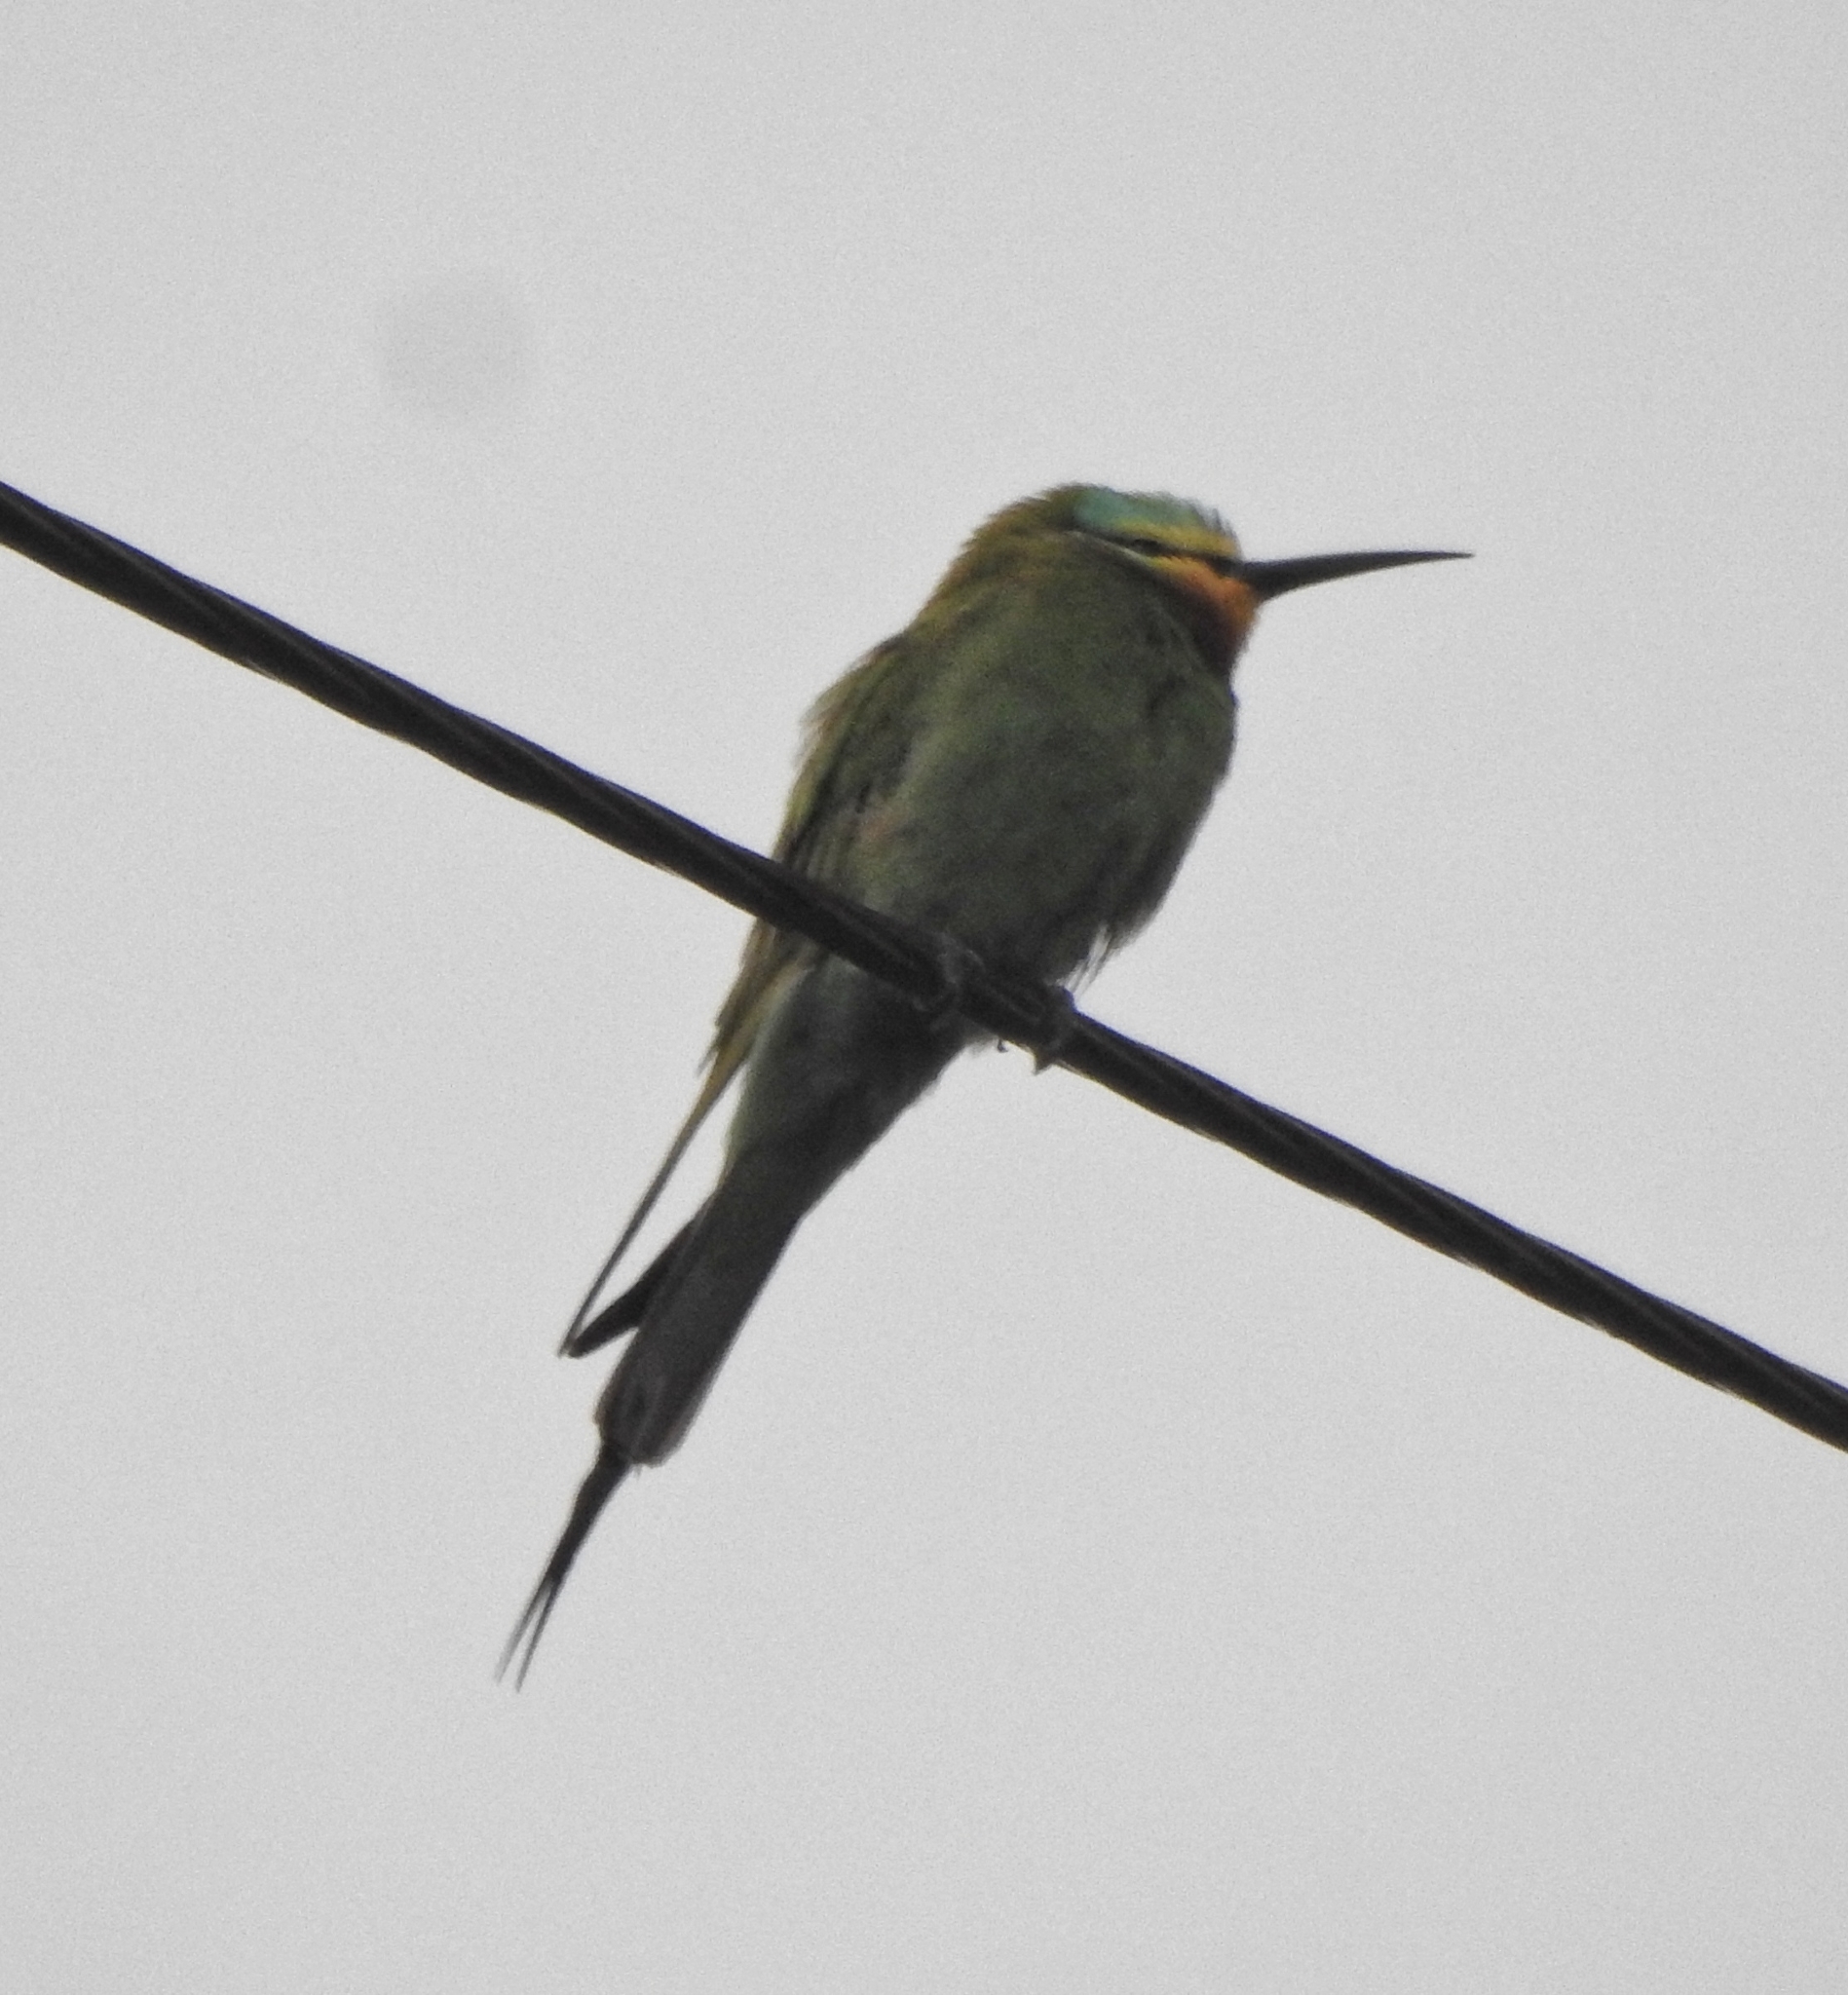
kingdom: Animalia
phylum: Chordata
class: Aves
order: Coraciiformes
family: Meropidae
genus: Merops
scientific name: Merops persicus
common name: Blue-cheeked bee-eater
